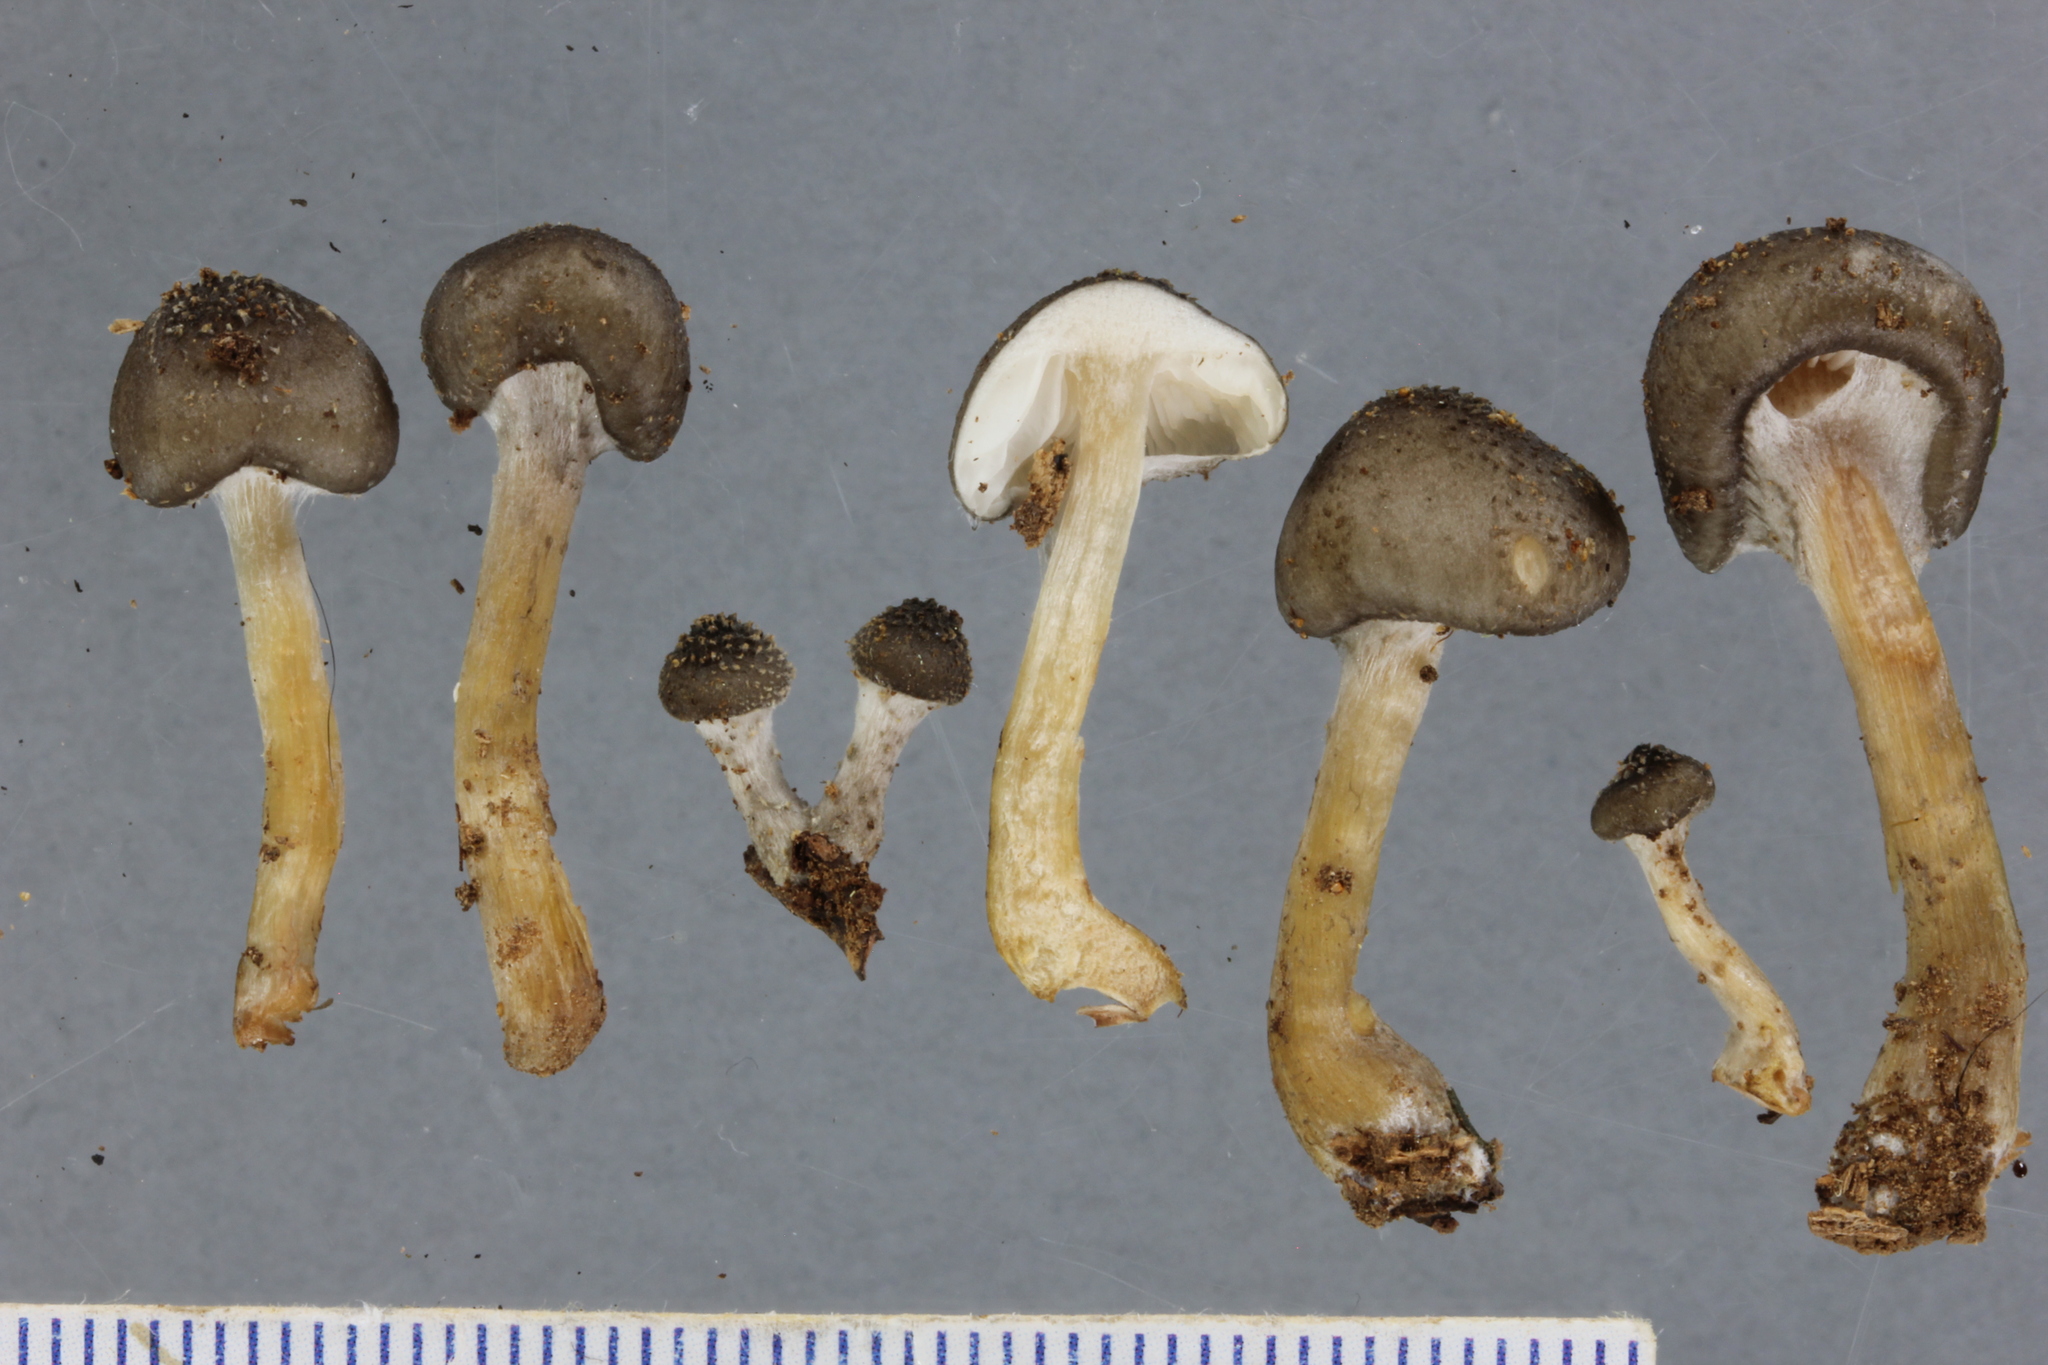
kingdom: Fungi
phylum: Basidiomycota
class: Agaricomycetes
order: Agaricales
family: Physalacriaceae
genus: Armillaria
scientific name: Armillaria novae-zelandiae
